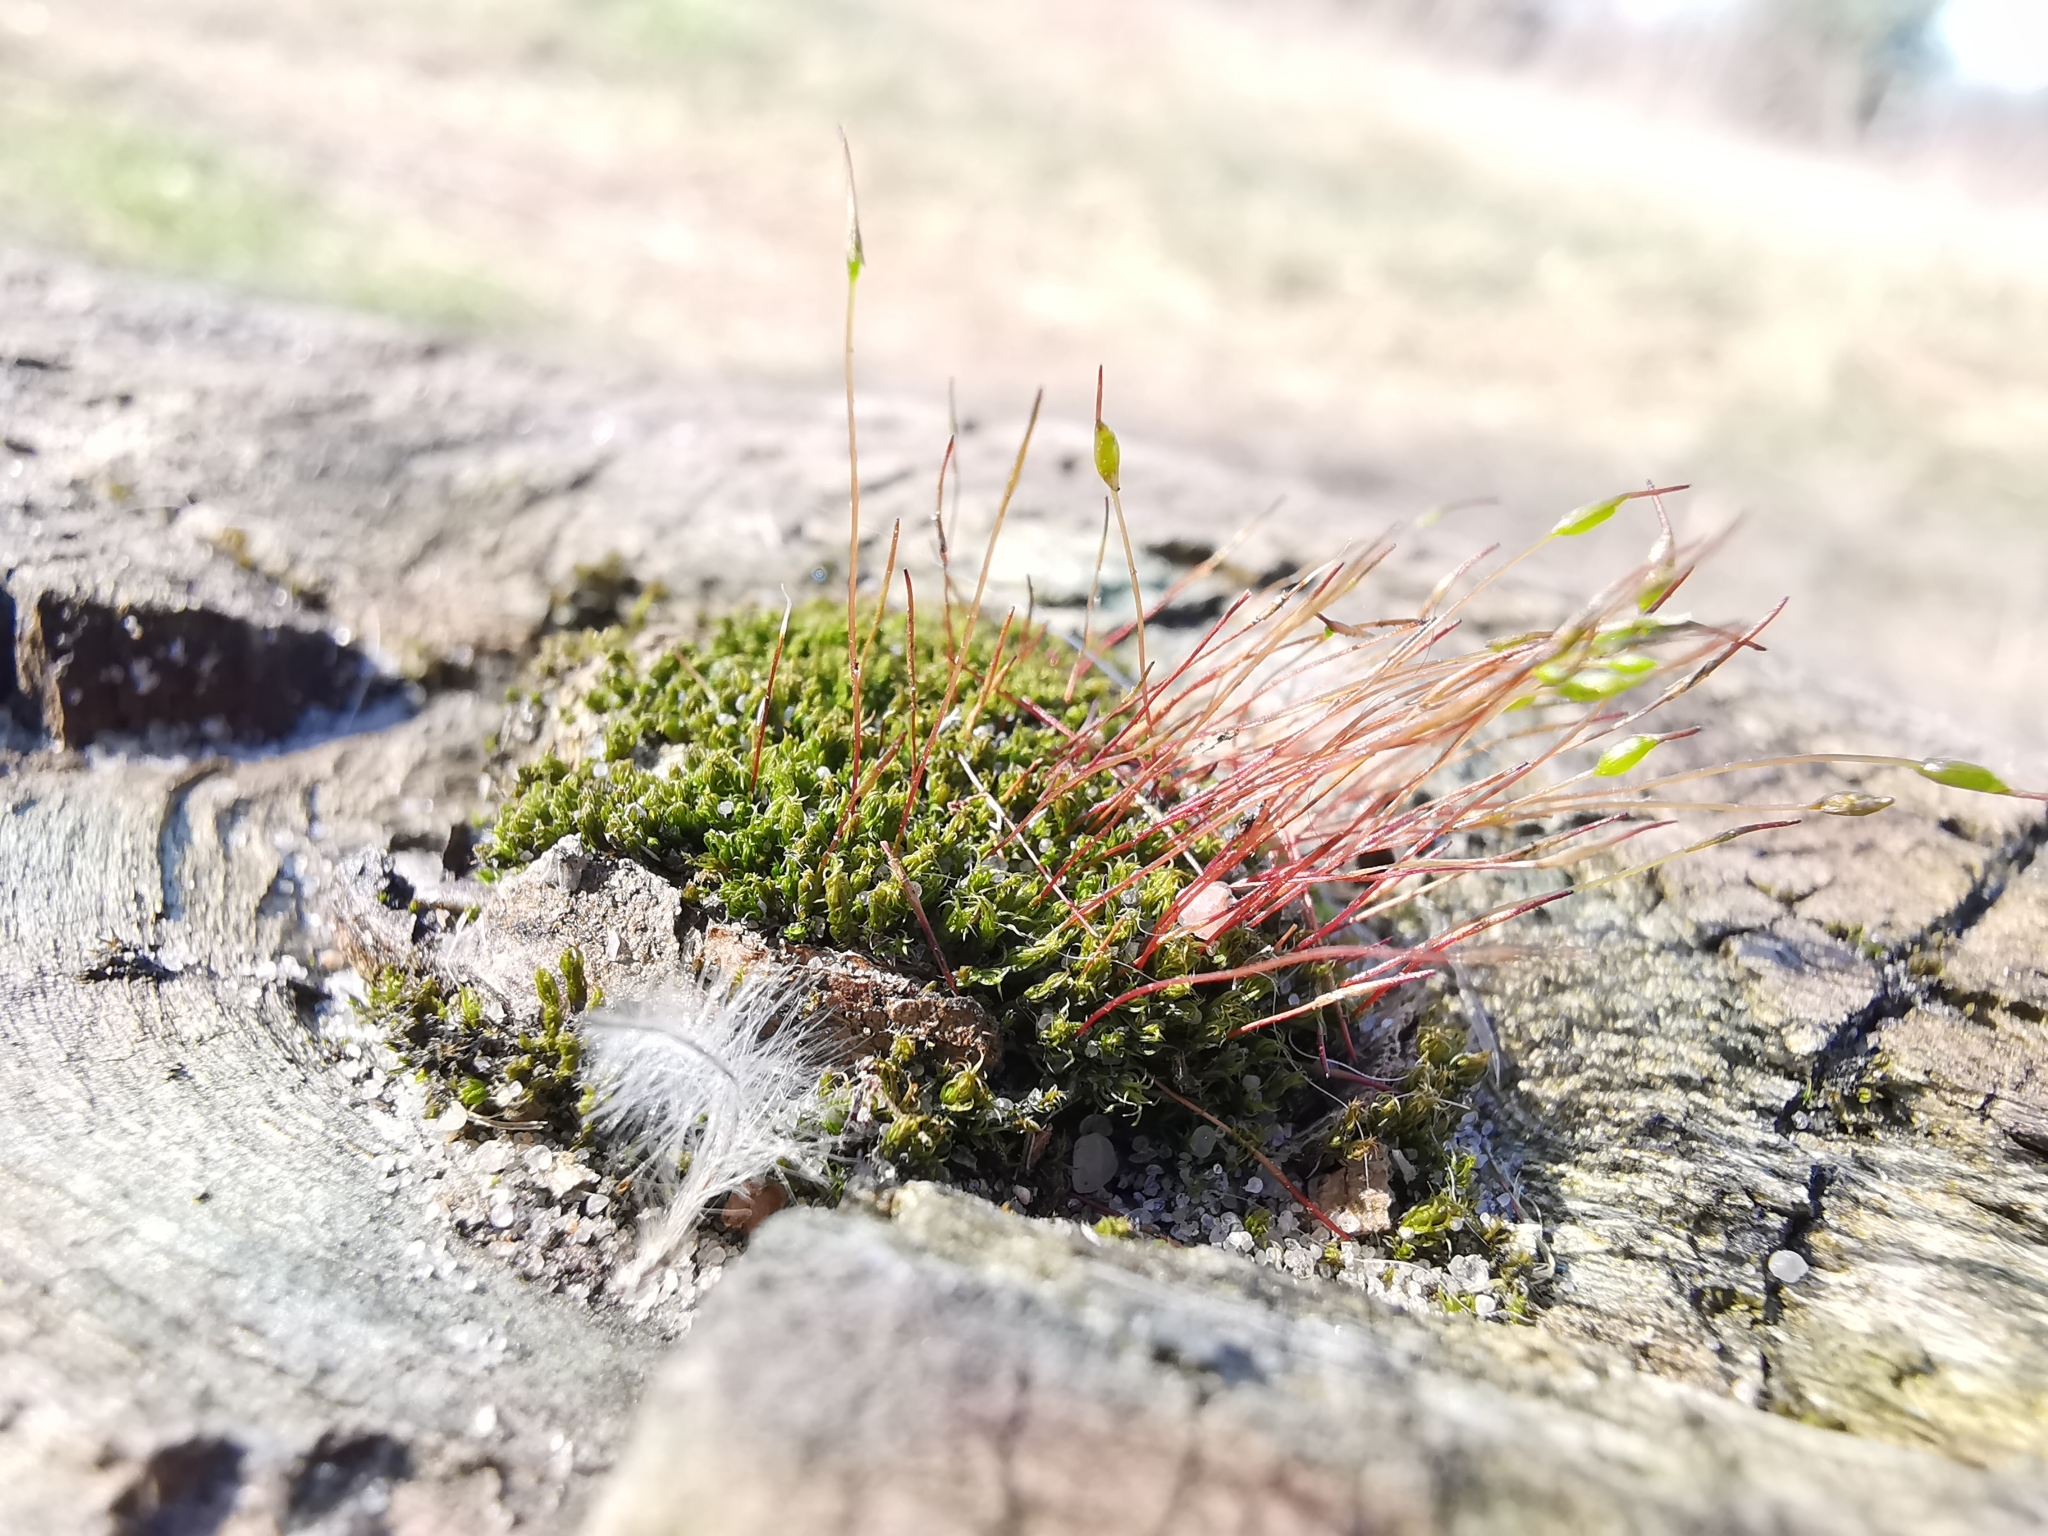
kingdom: Plantae
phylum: Bryophyta
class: Bryopsida
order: Dicranales
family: Ditrichaceae
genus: Ceratodon
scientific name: Ceratodon purpureus
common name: Redshank
